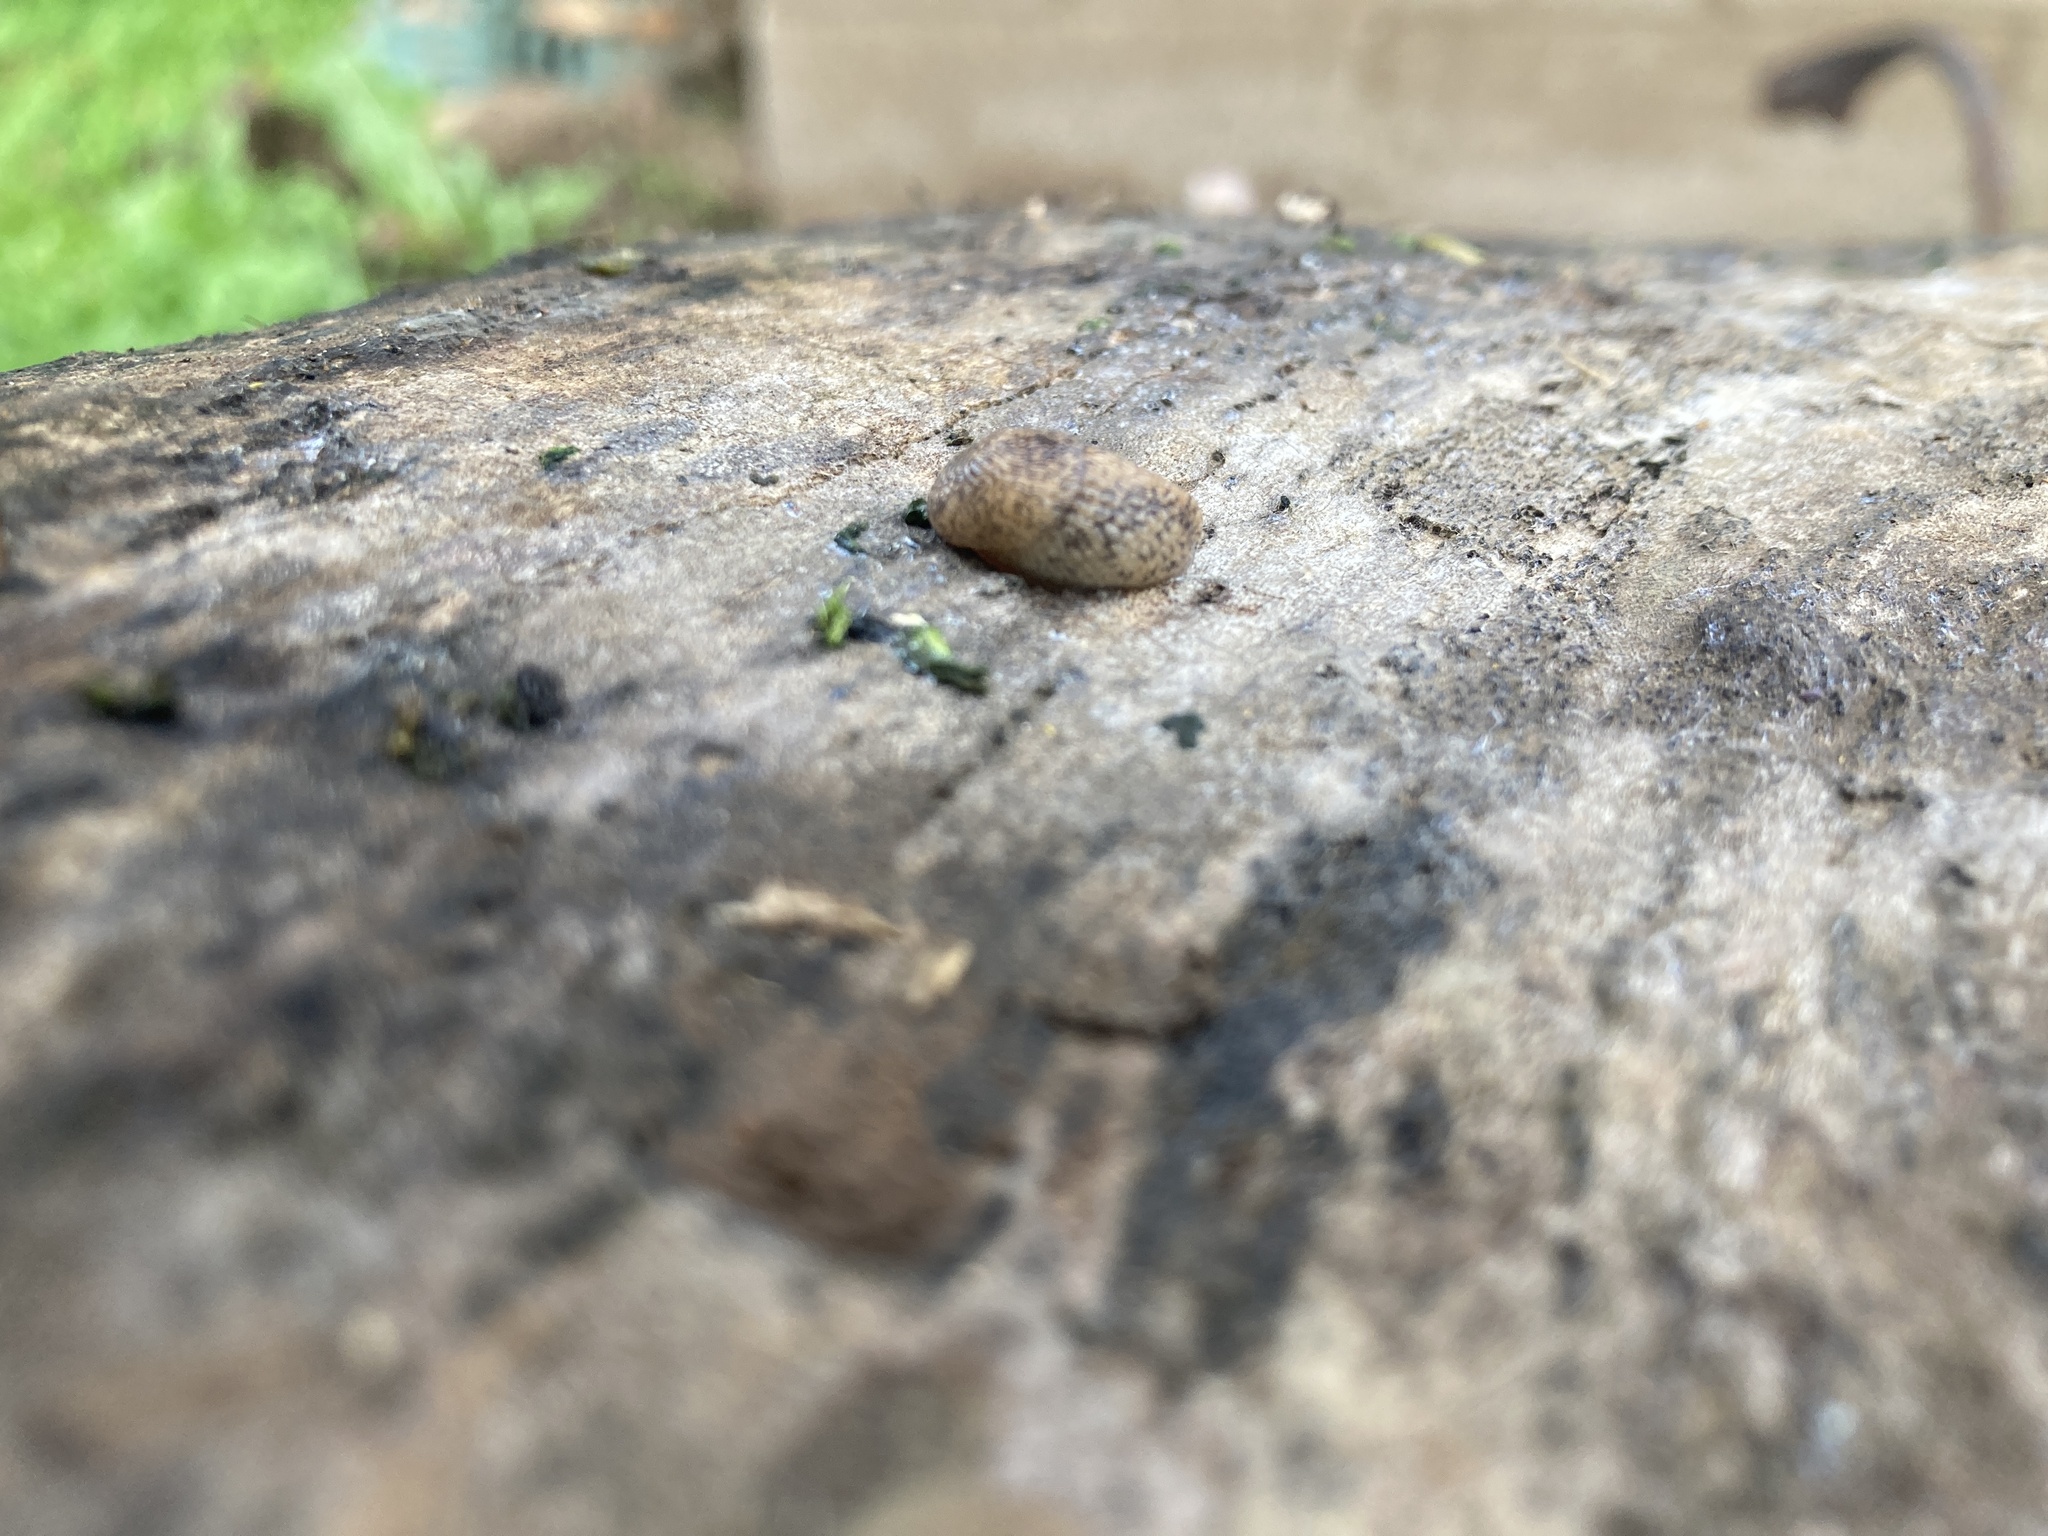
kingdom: Animalia
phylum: Mollusca
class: Gastropoda
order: Stylommatophora
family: Agriolimacidae
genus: Deroceras
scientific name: Deroceras reticulatum
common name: Gray field slug
